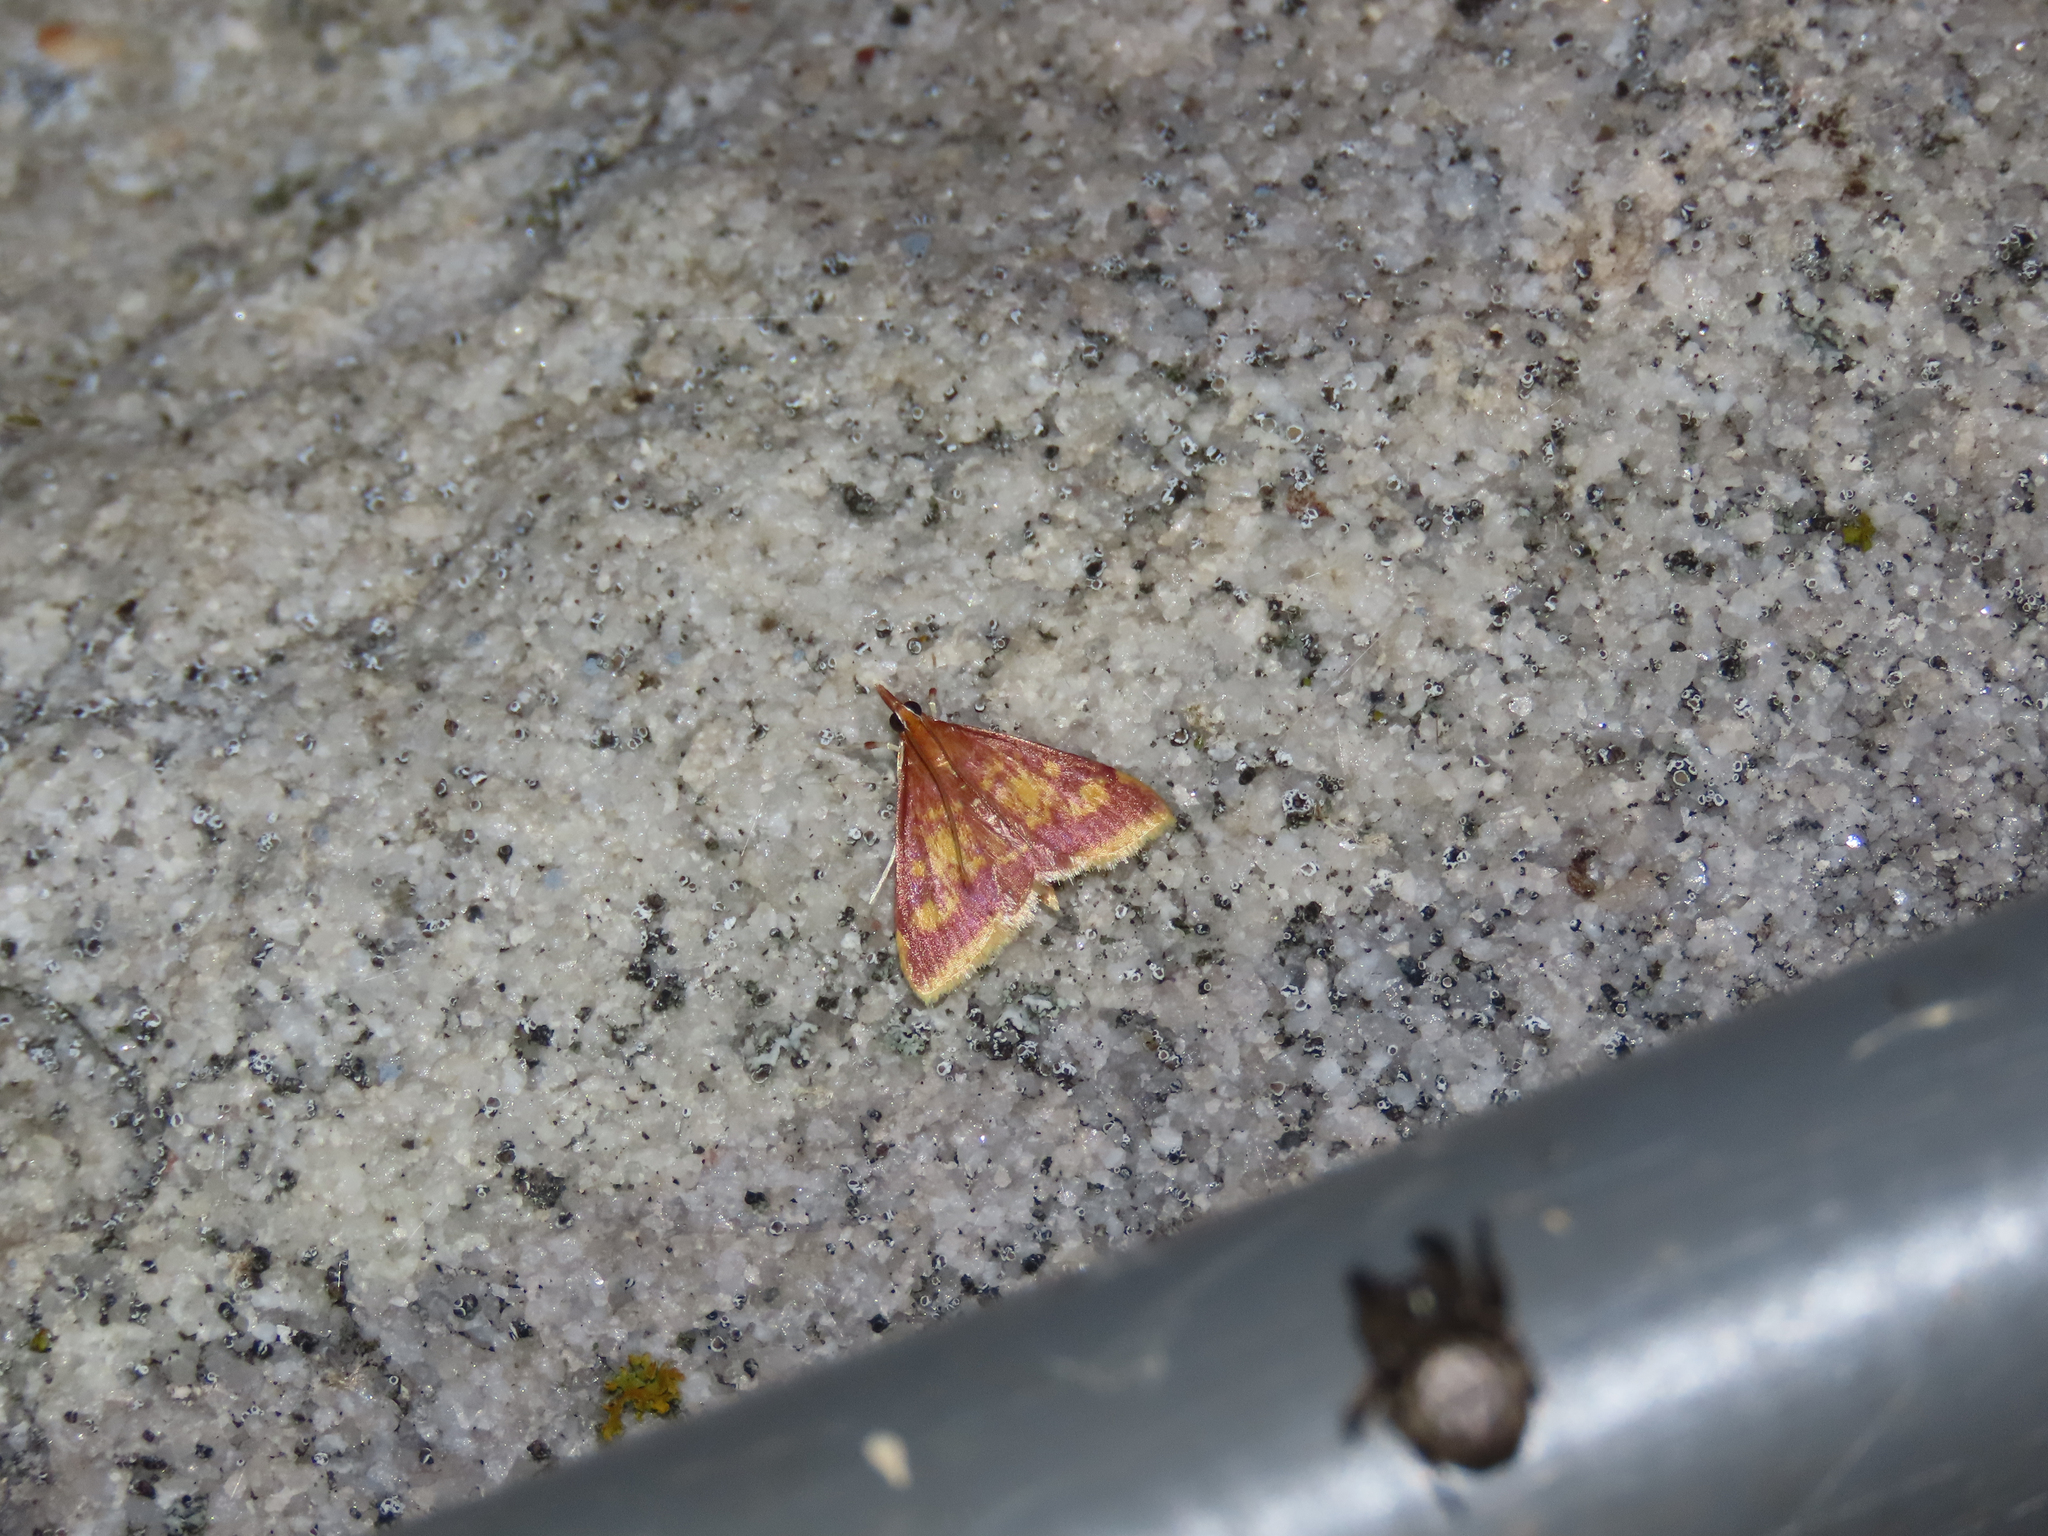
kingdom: Animalia
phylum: Arthropoda
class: Insecta
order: Lepidoptera
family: Crambidae
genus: Pyrausta
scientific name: Pyrausta acrionalis
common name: Mint-loving pyrausta moth
